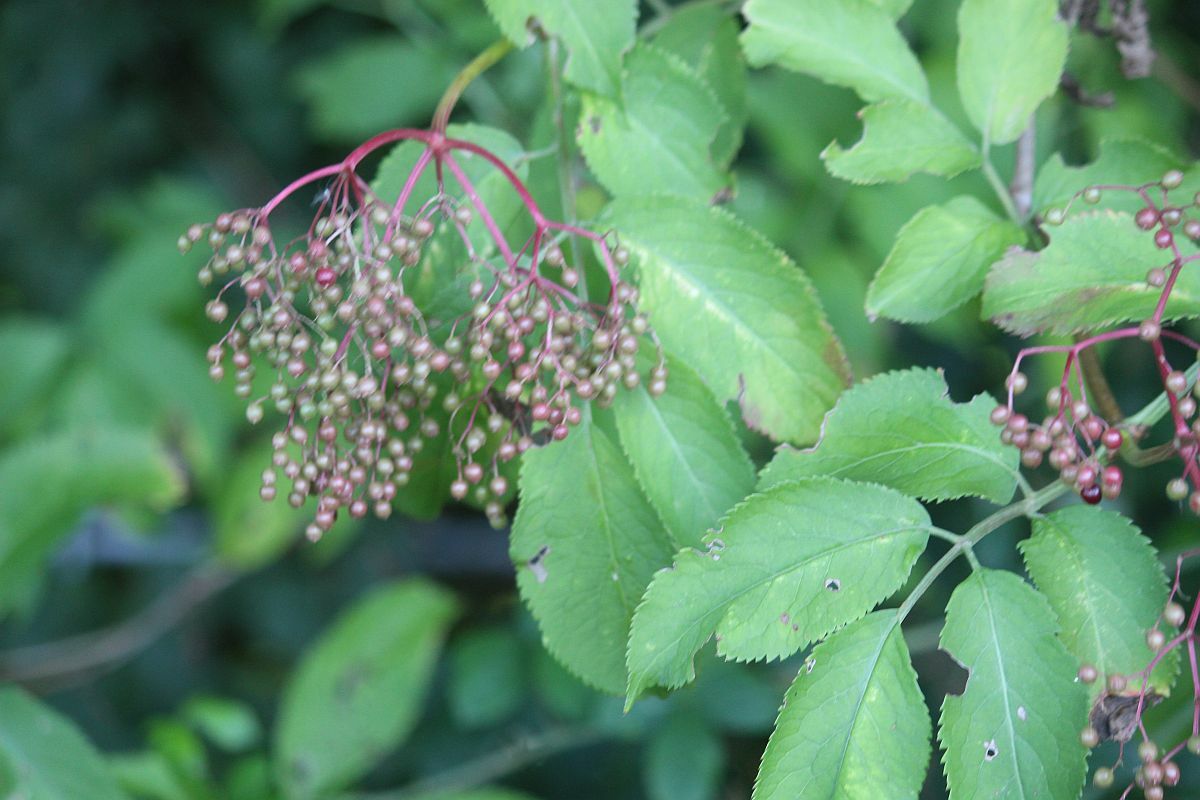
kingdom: Plantae
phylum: Tracheophyta
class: Magnoliopsida
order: Dipsacales
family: Viburnaceae
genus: Sambucus
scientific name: Sambucus nigra
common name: Elder
